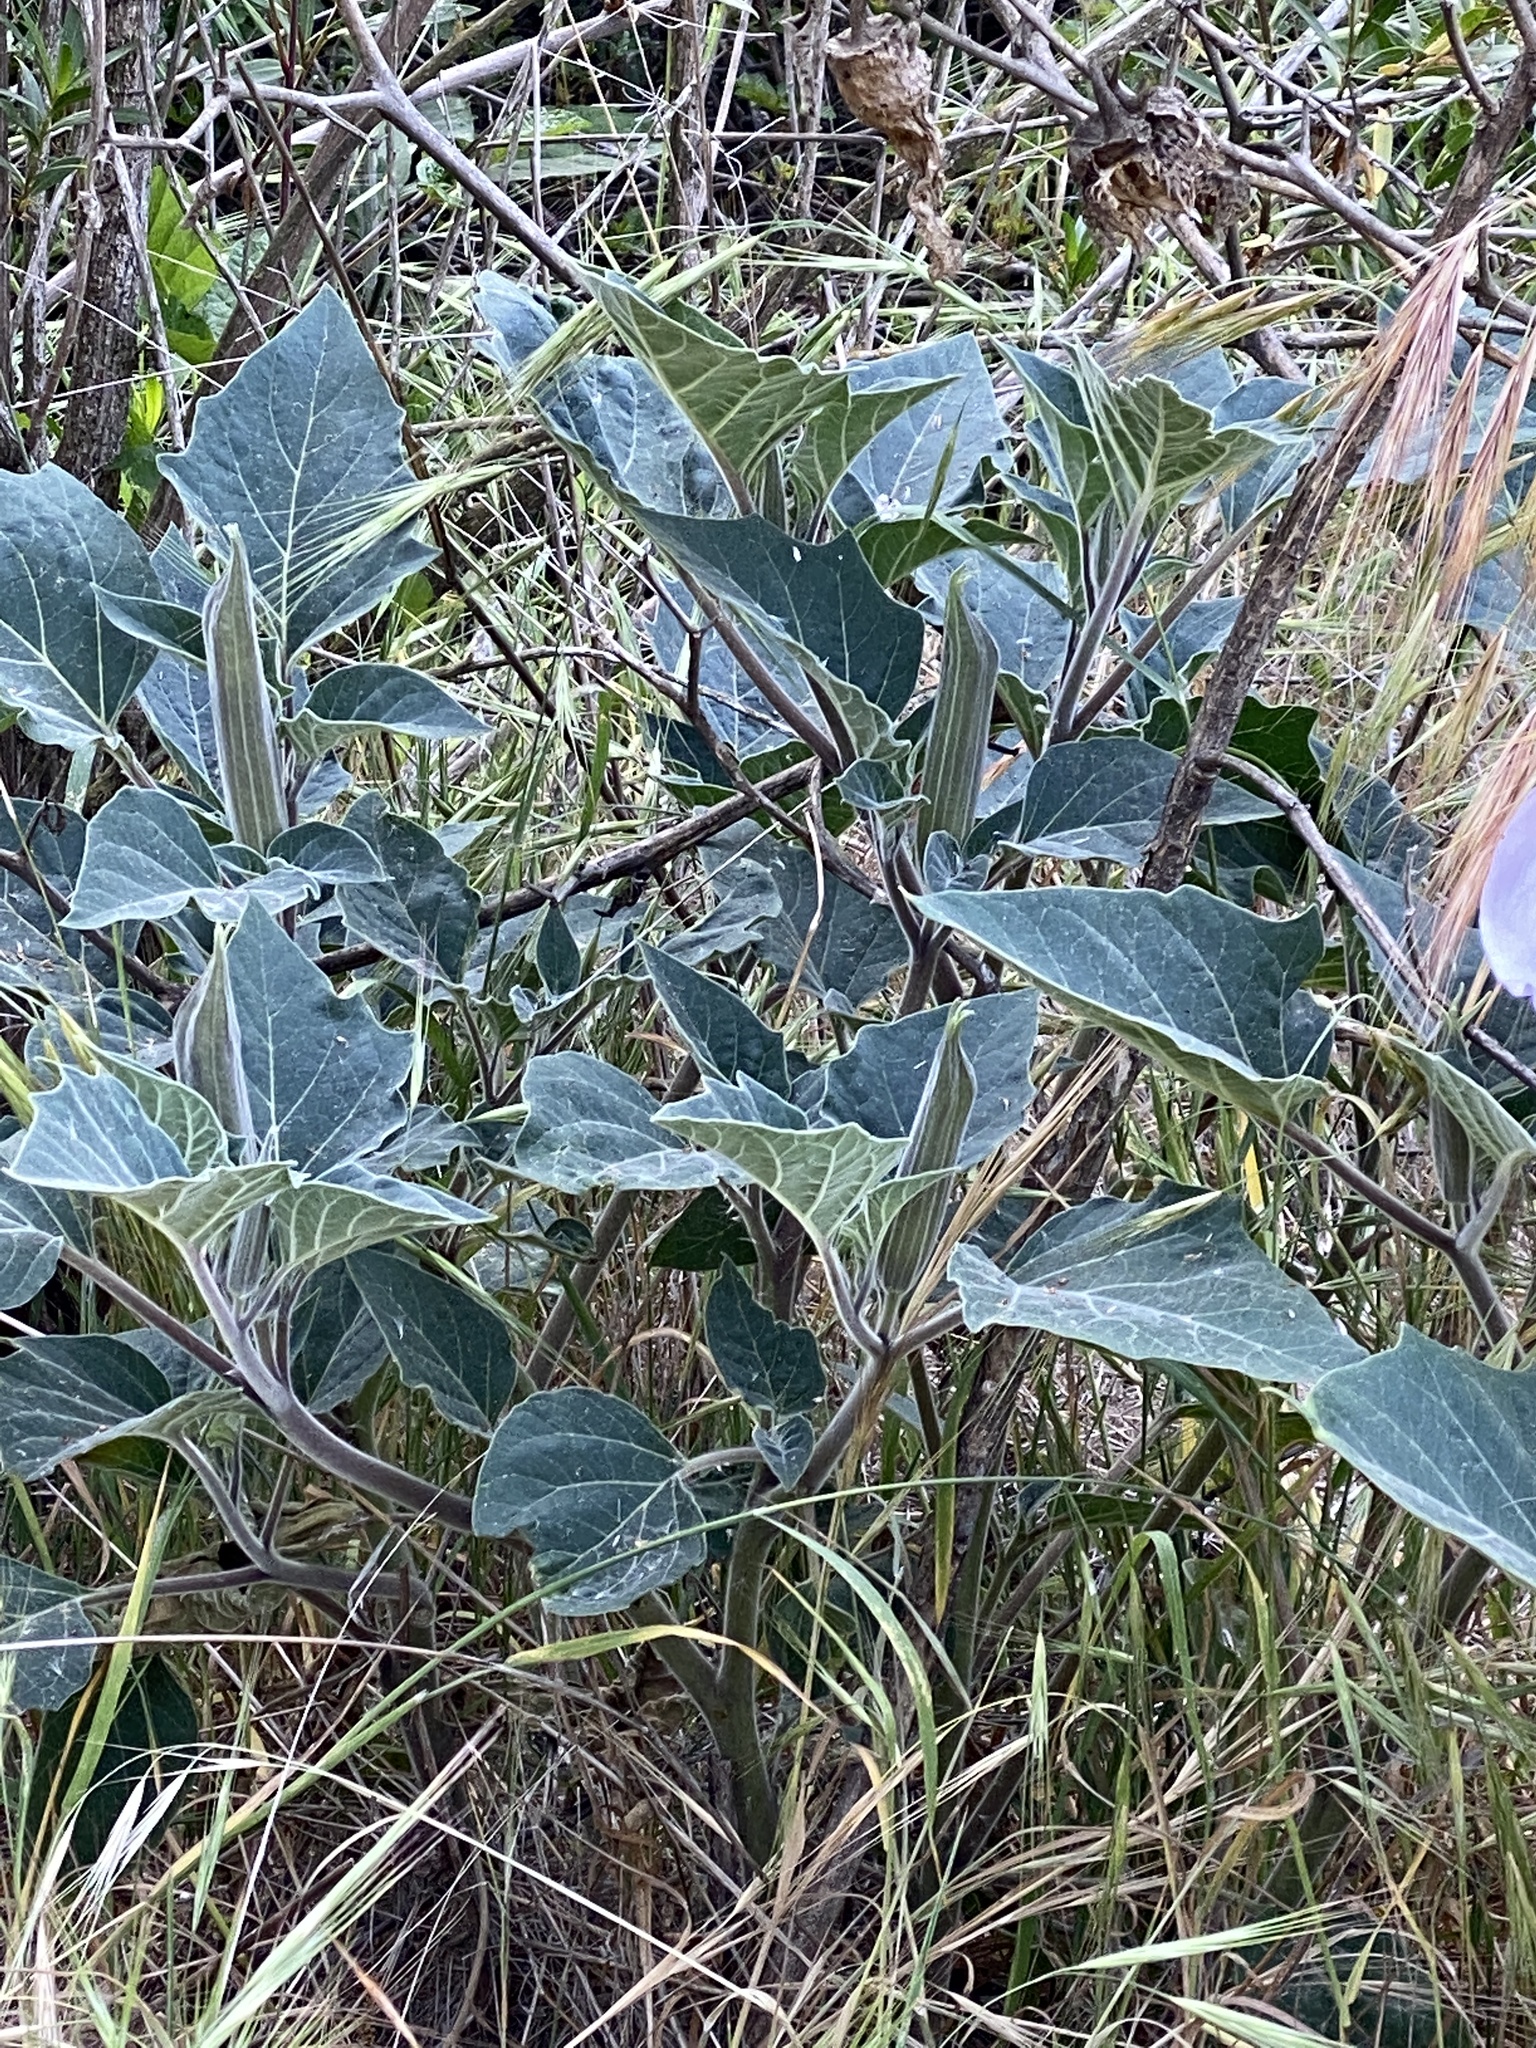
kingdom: Plantae
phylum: Tracheophyta
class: Magnoliopsida
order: Solanales
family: Solanaceae
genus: Datura
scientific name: Datura wrightii
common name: Sacred thorn-apple
